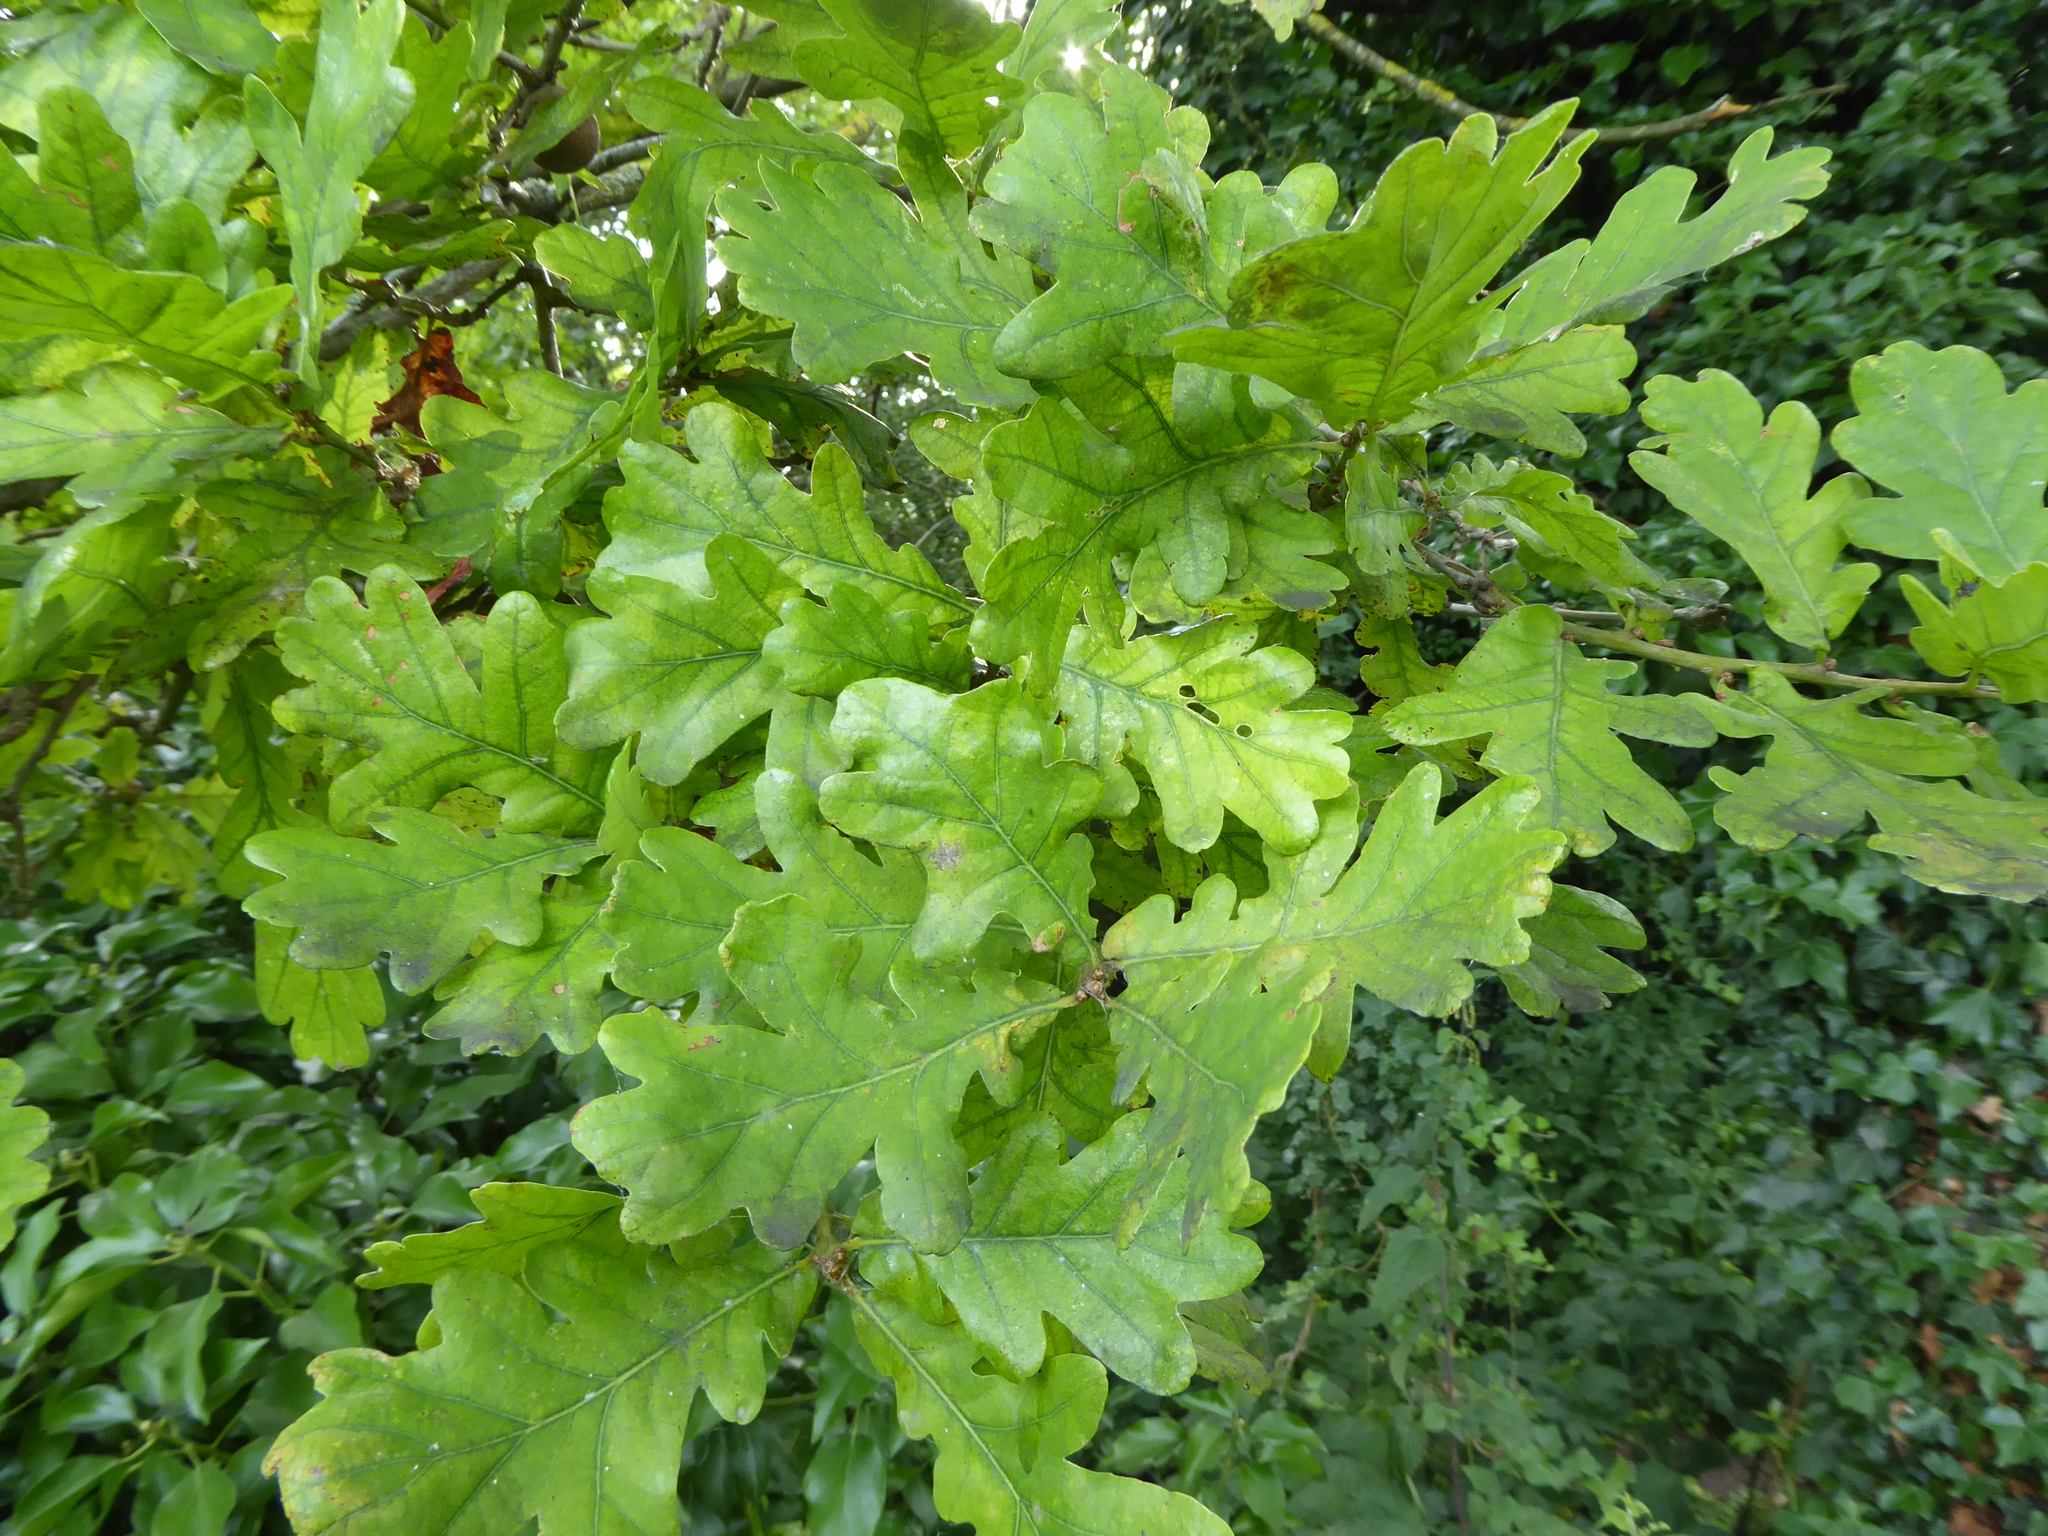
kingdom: Plantae
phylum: Tracheophyta
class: Magnoliopsida
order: Fagales
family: Fagaceae
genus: Quercus
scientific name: Quercus robur
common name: Pedunculate oak
